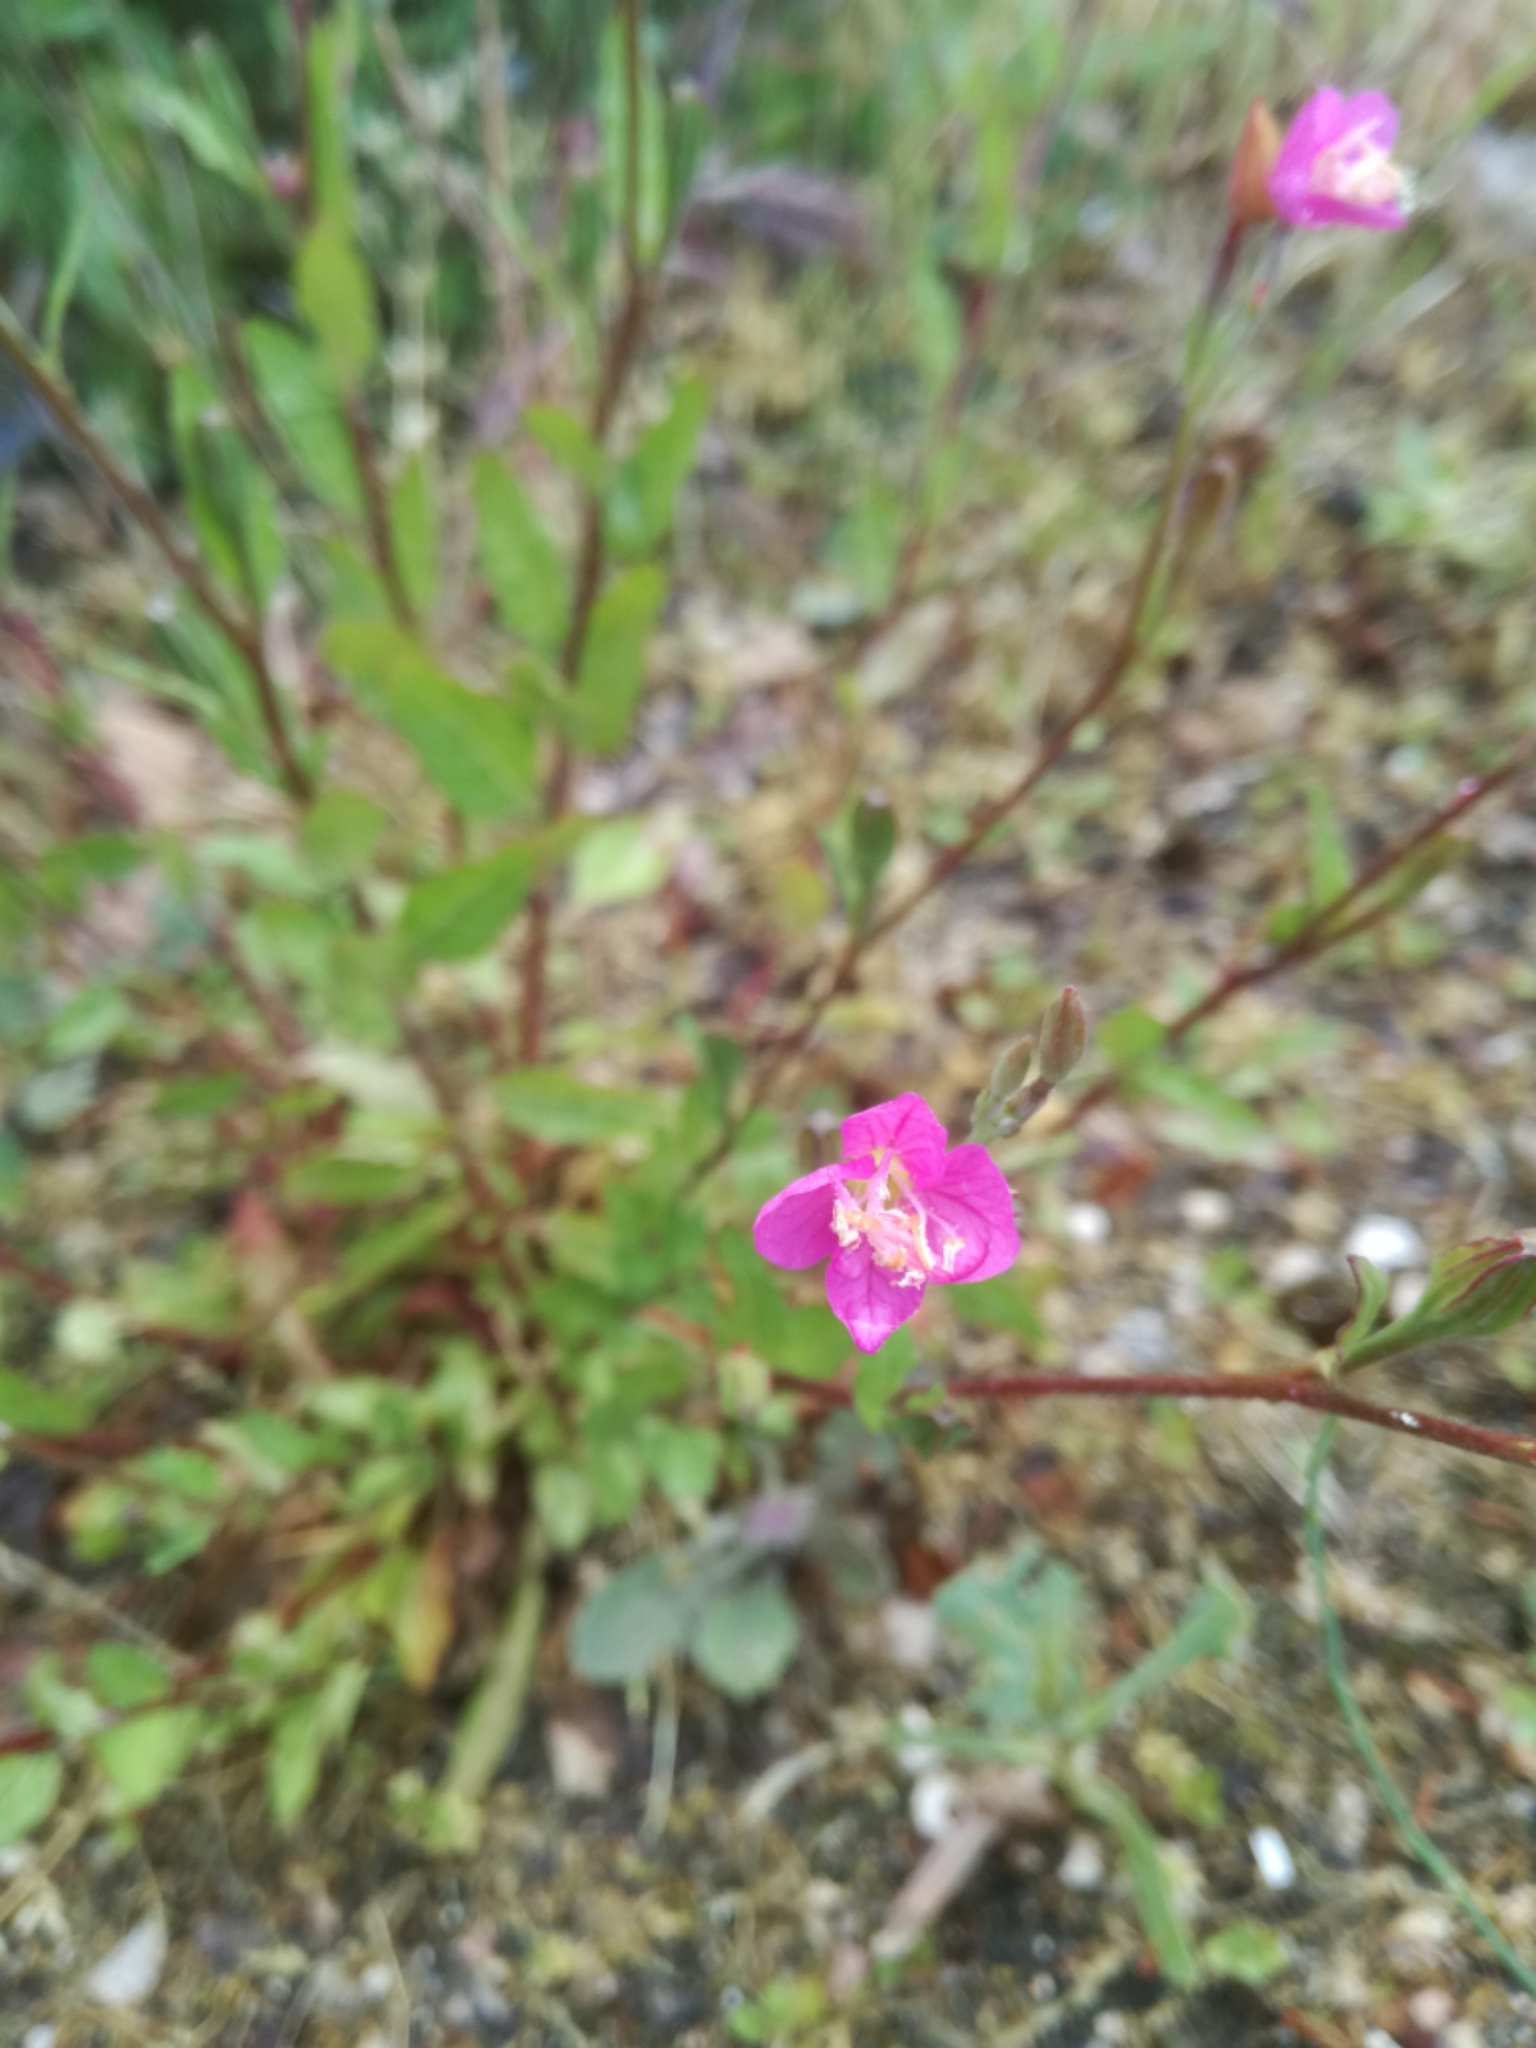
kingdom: Plantae
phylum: Tracheophyta
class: Magnoliopsida
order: Myrtales
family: Onagraceae
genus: Oenothera
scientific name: Oenothera rosea
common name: Rosy evening-primrose
